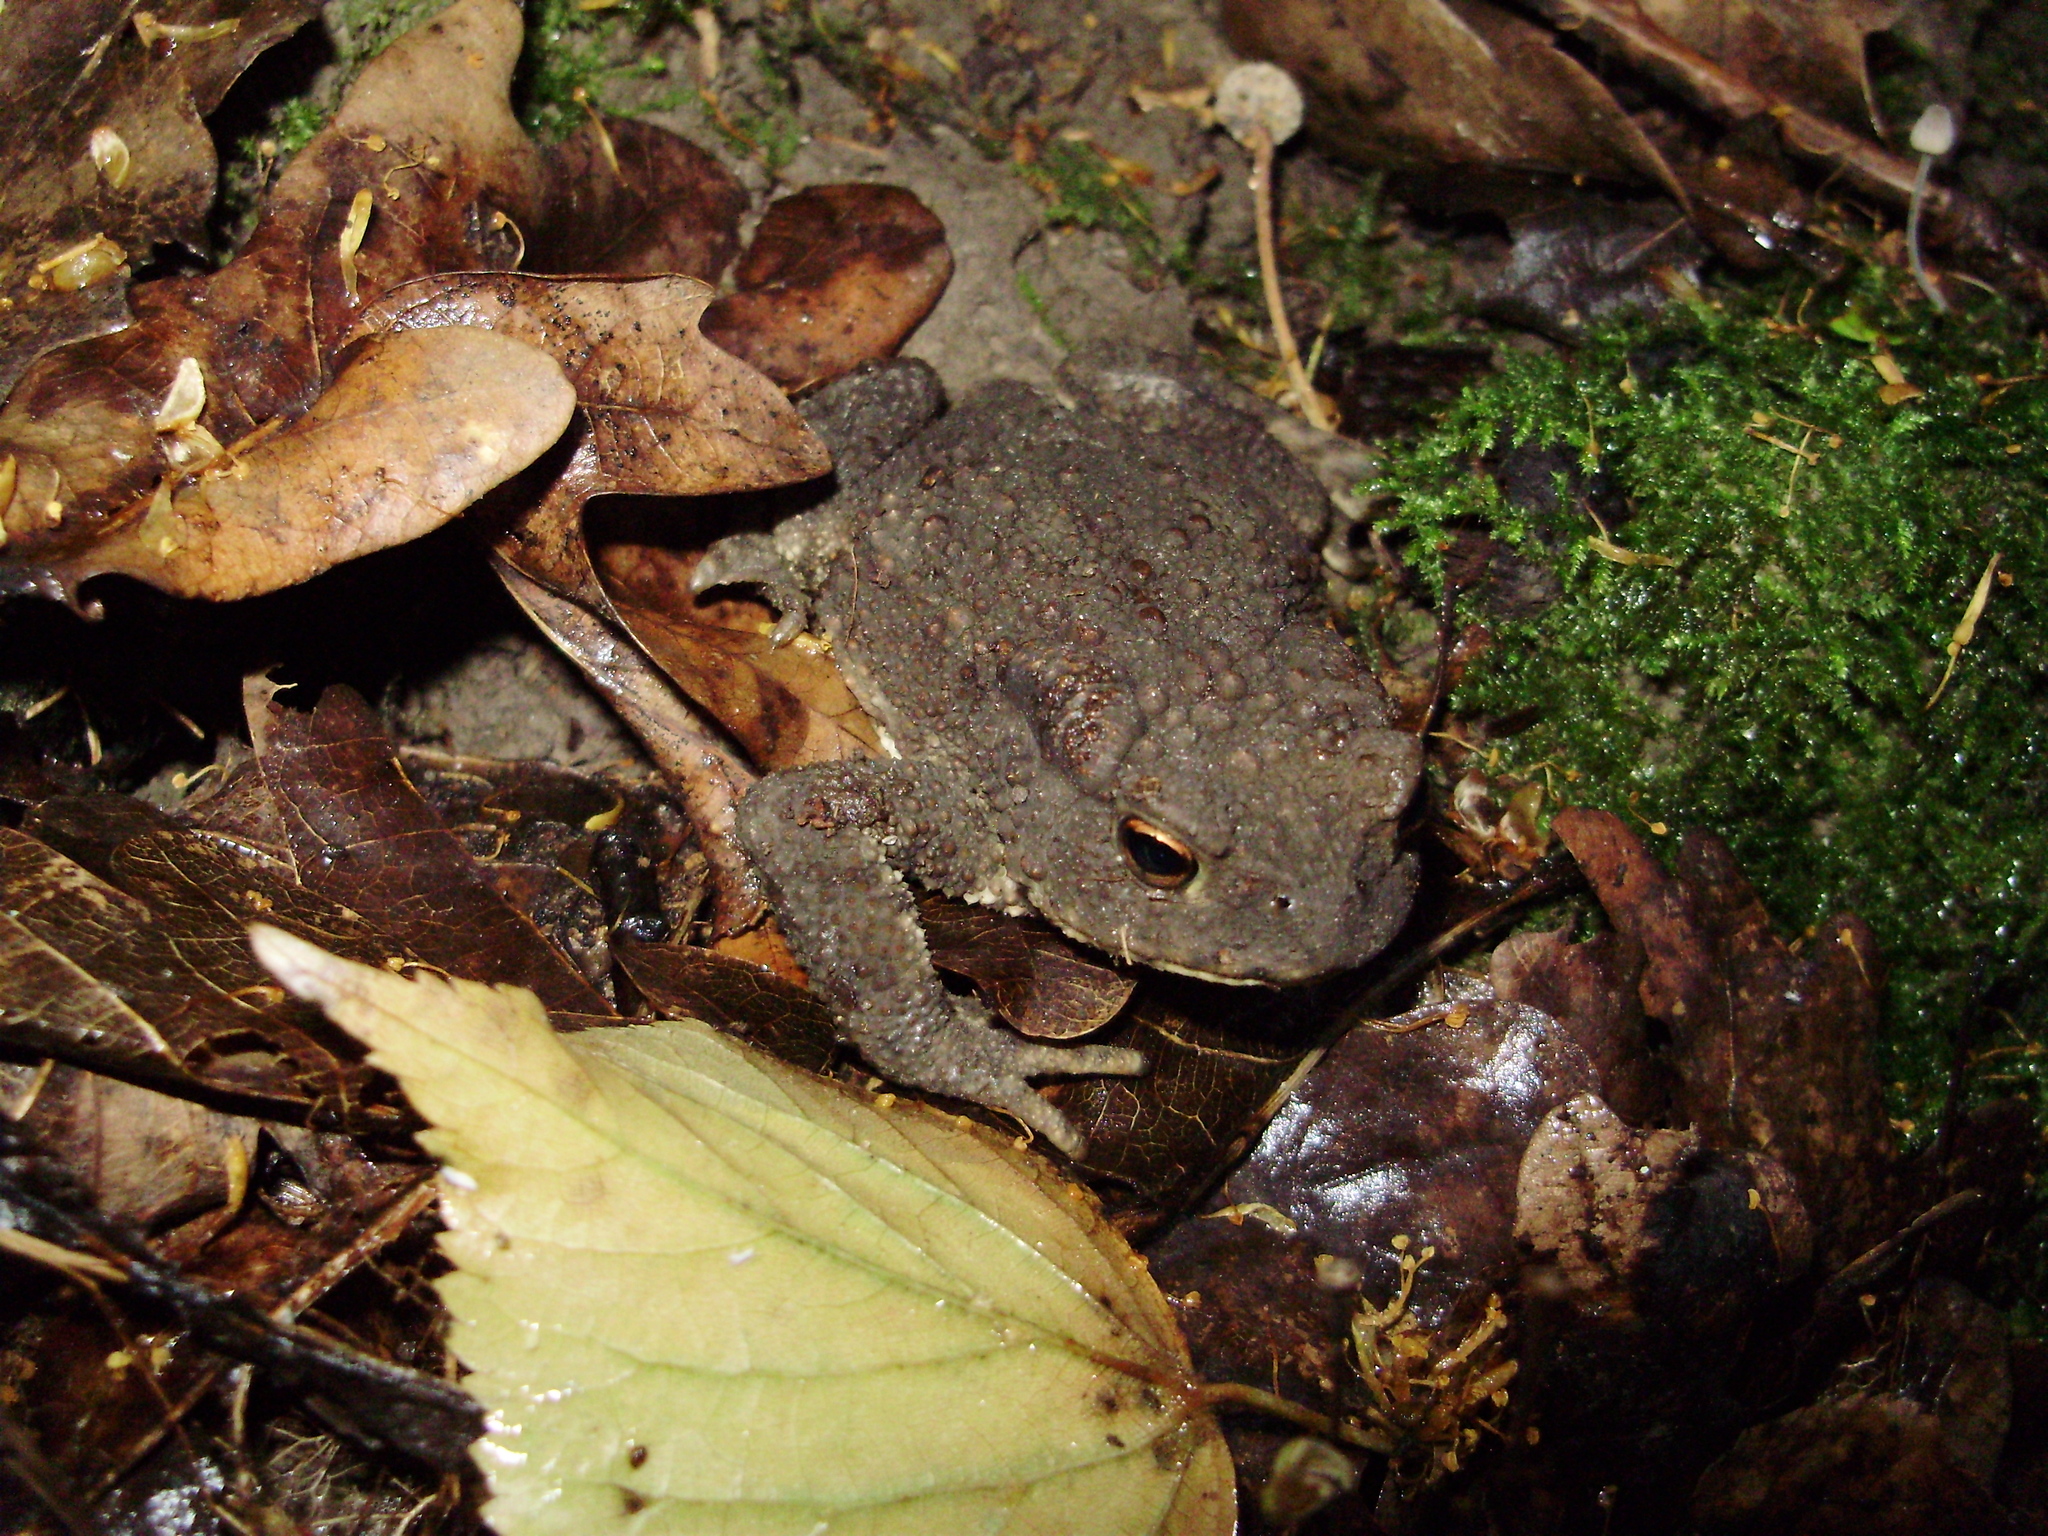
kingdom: Animalia
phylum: Chordata
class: Amphibia
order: Anura
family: Bufonidae
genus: Bufo
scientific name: Bufo bufo
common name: Common toad
